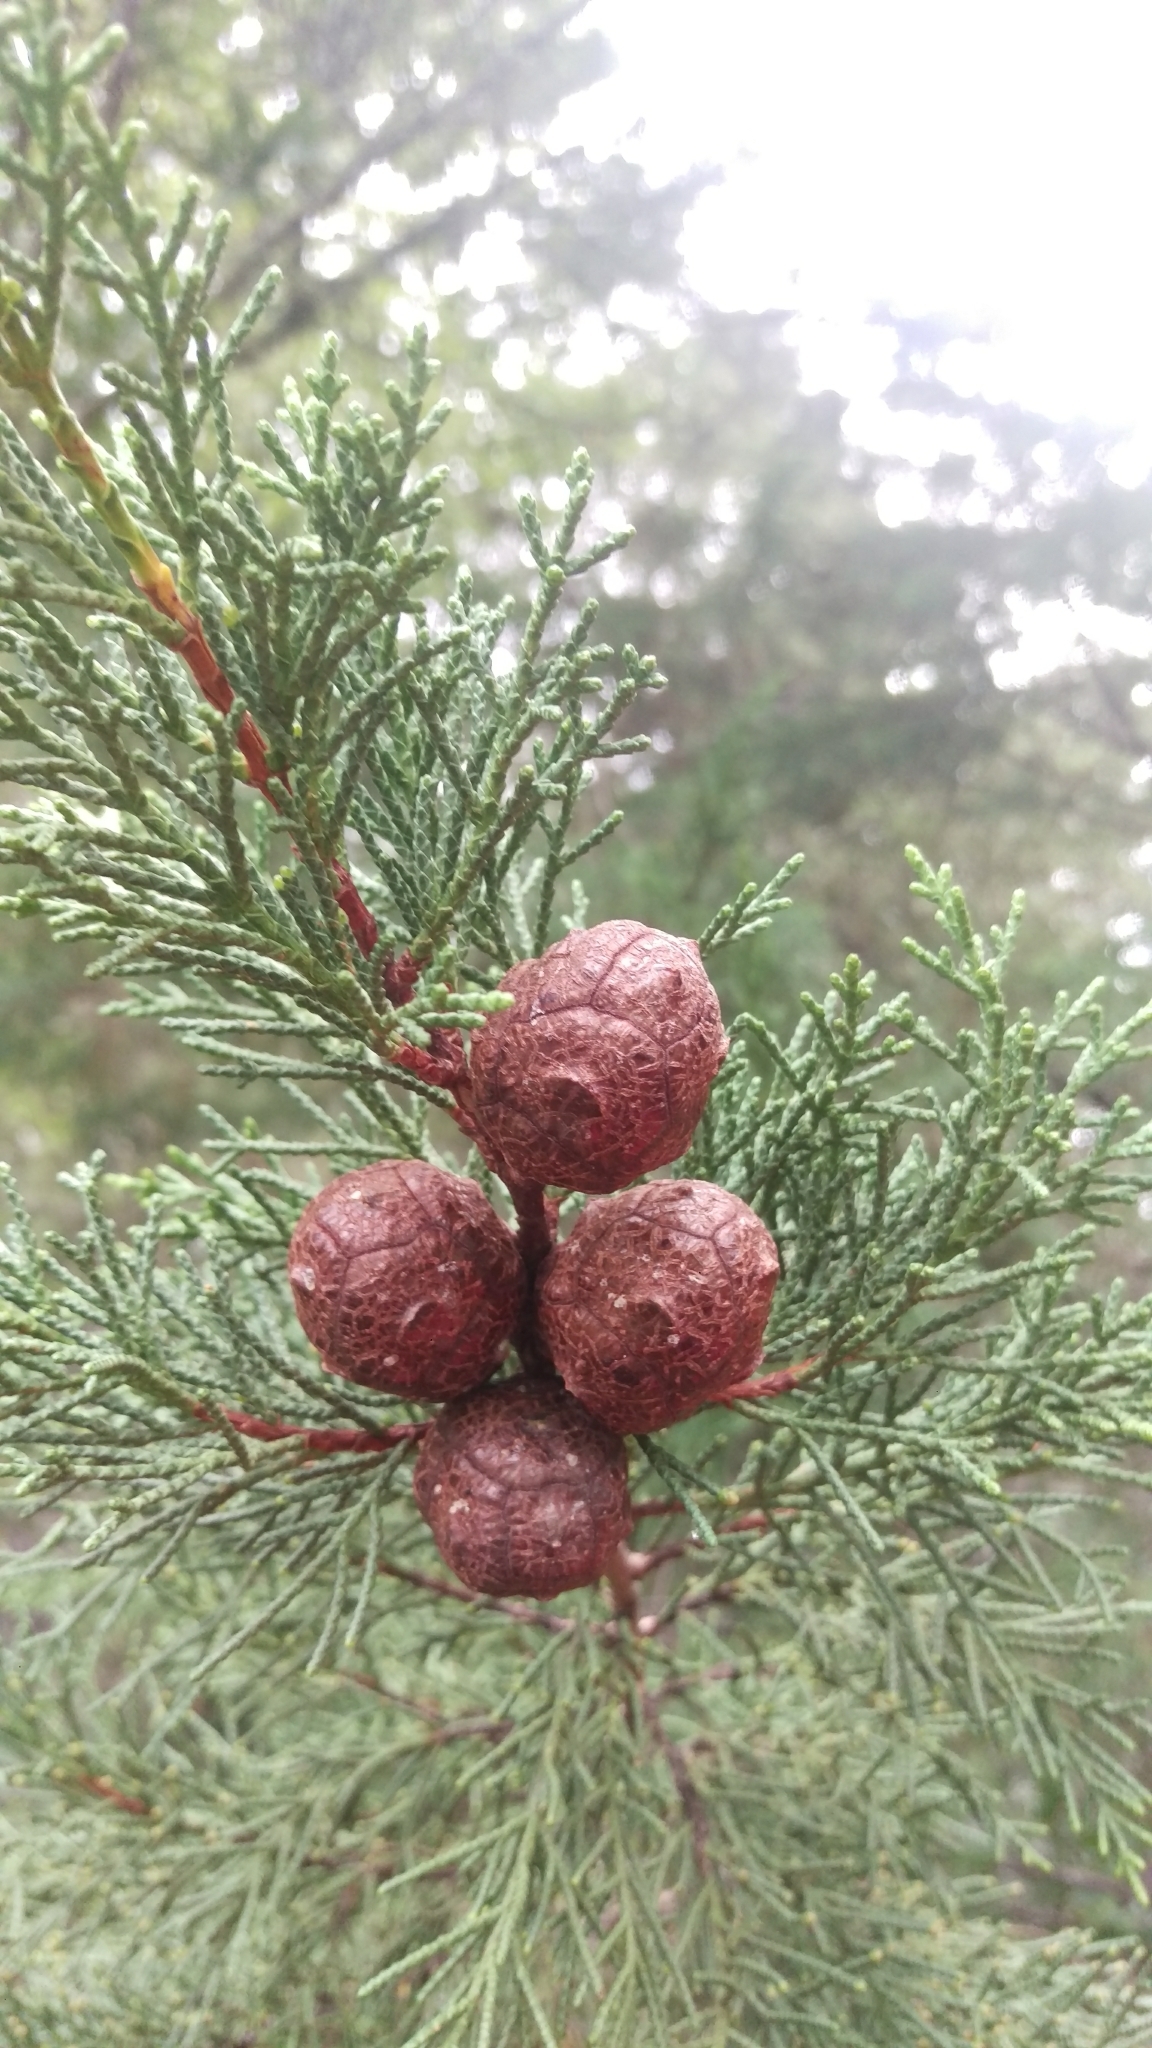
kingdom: Plantae
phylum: Tracheophyta
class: Pinopsida
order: Pinales
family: Cupressaceae
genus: Cupressus
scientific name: Cupressus macrocarpa
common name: Monterey cypress
